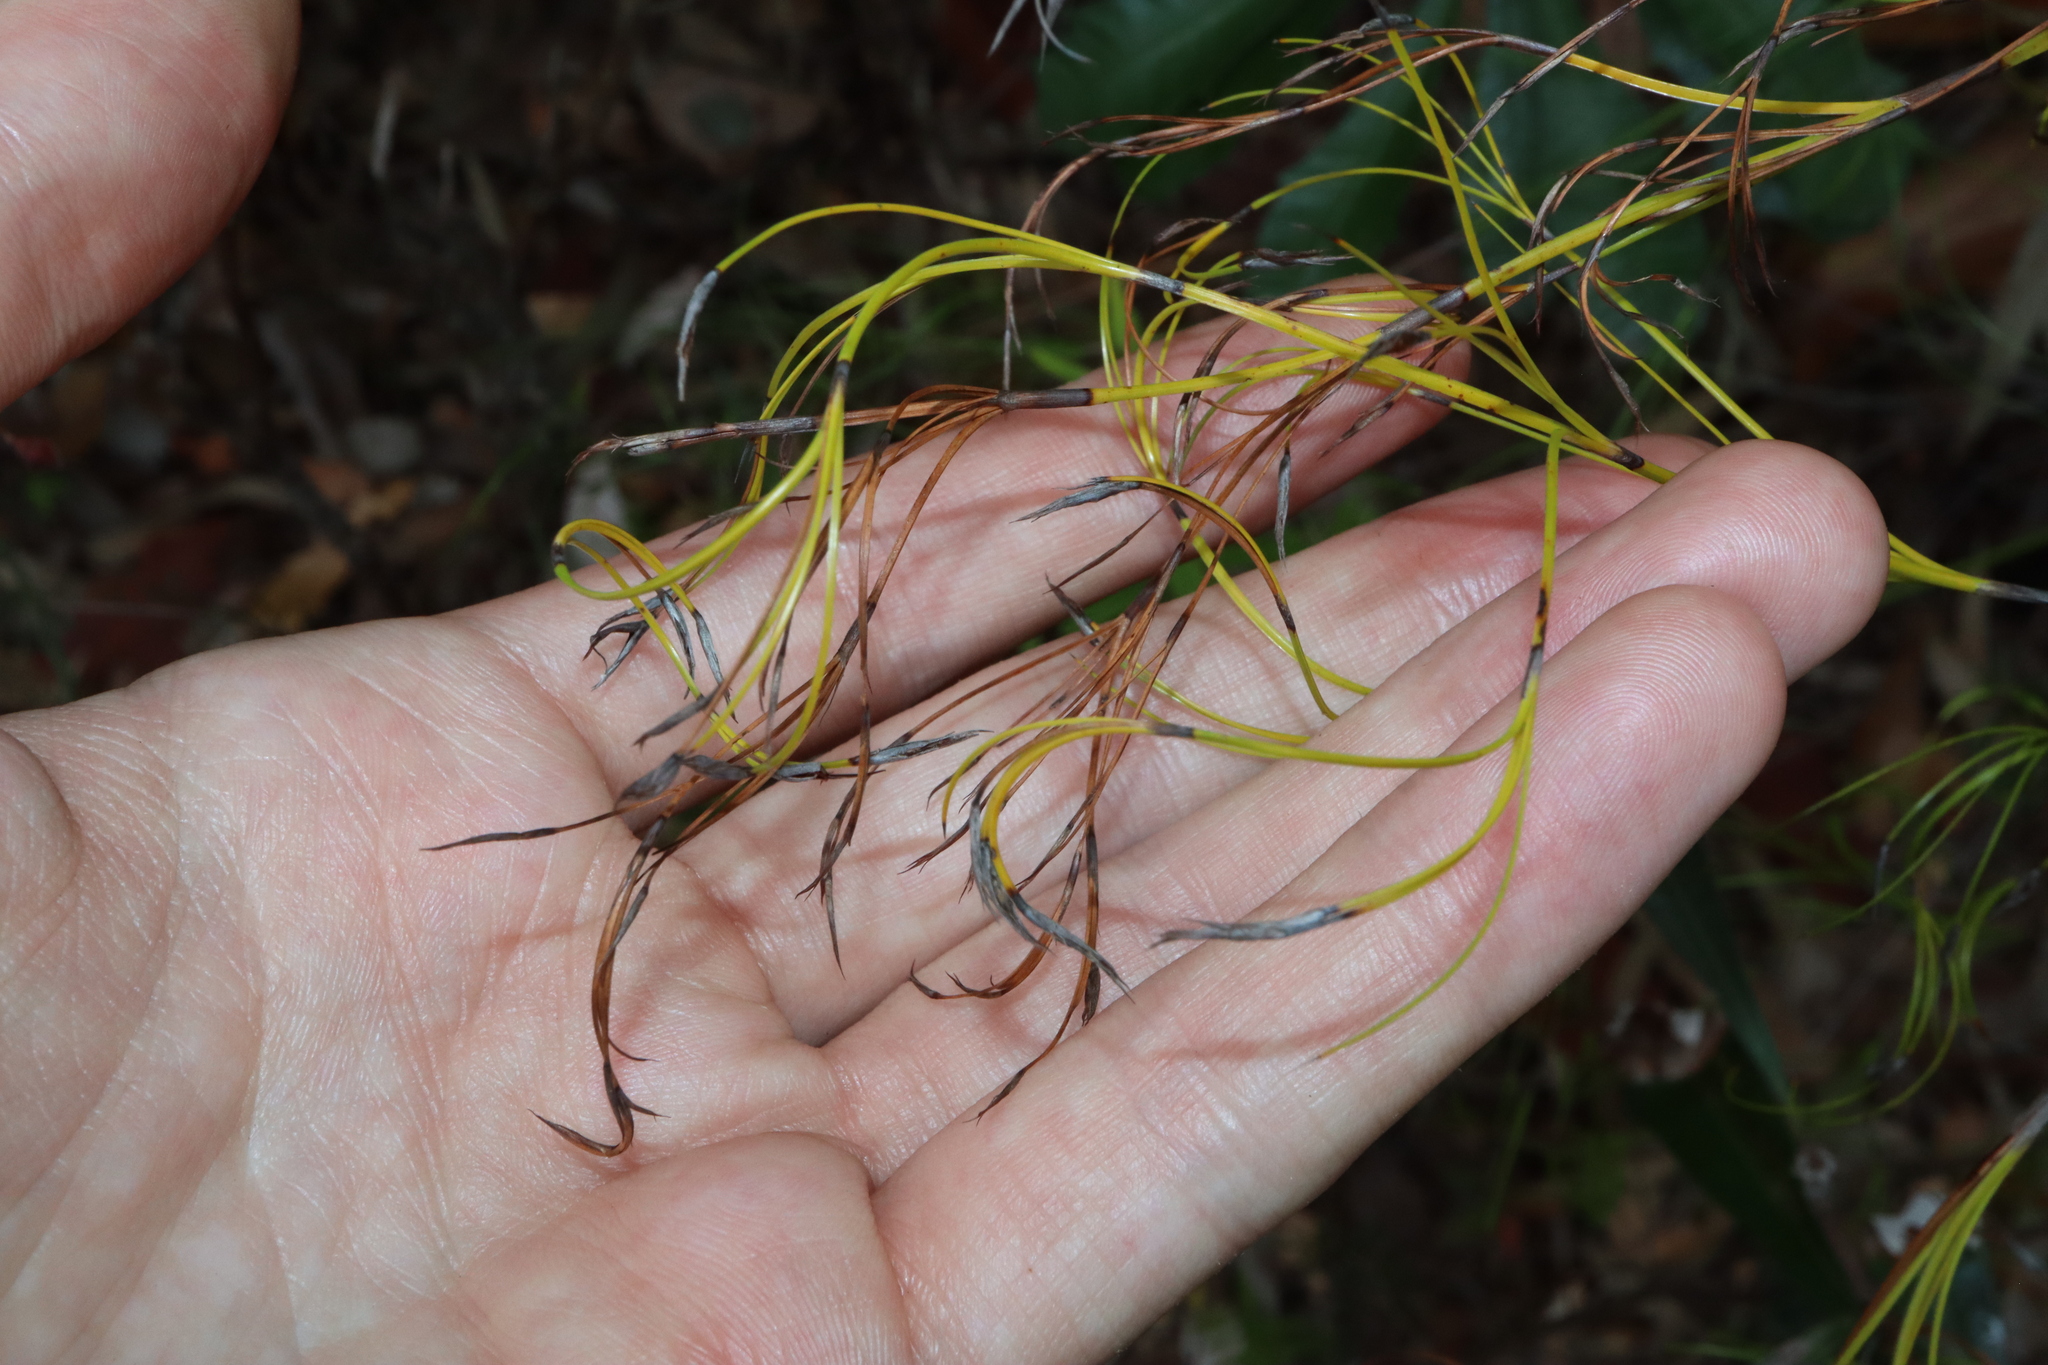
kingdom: Plantae
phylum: Tracheophyta
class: Liliopsida
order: Poales
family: Cyperaceae
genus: Caustis
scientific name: Caustis flexuosa
